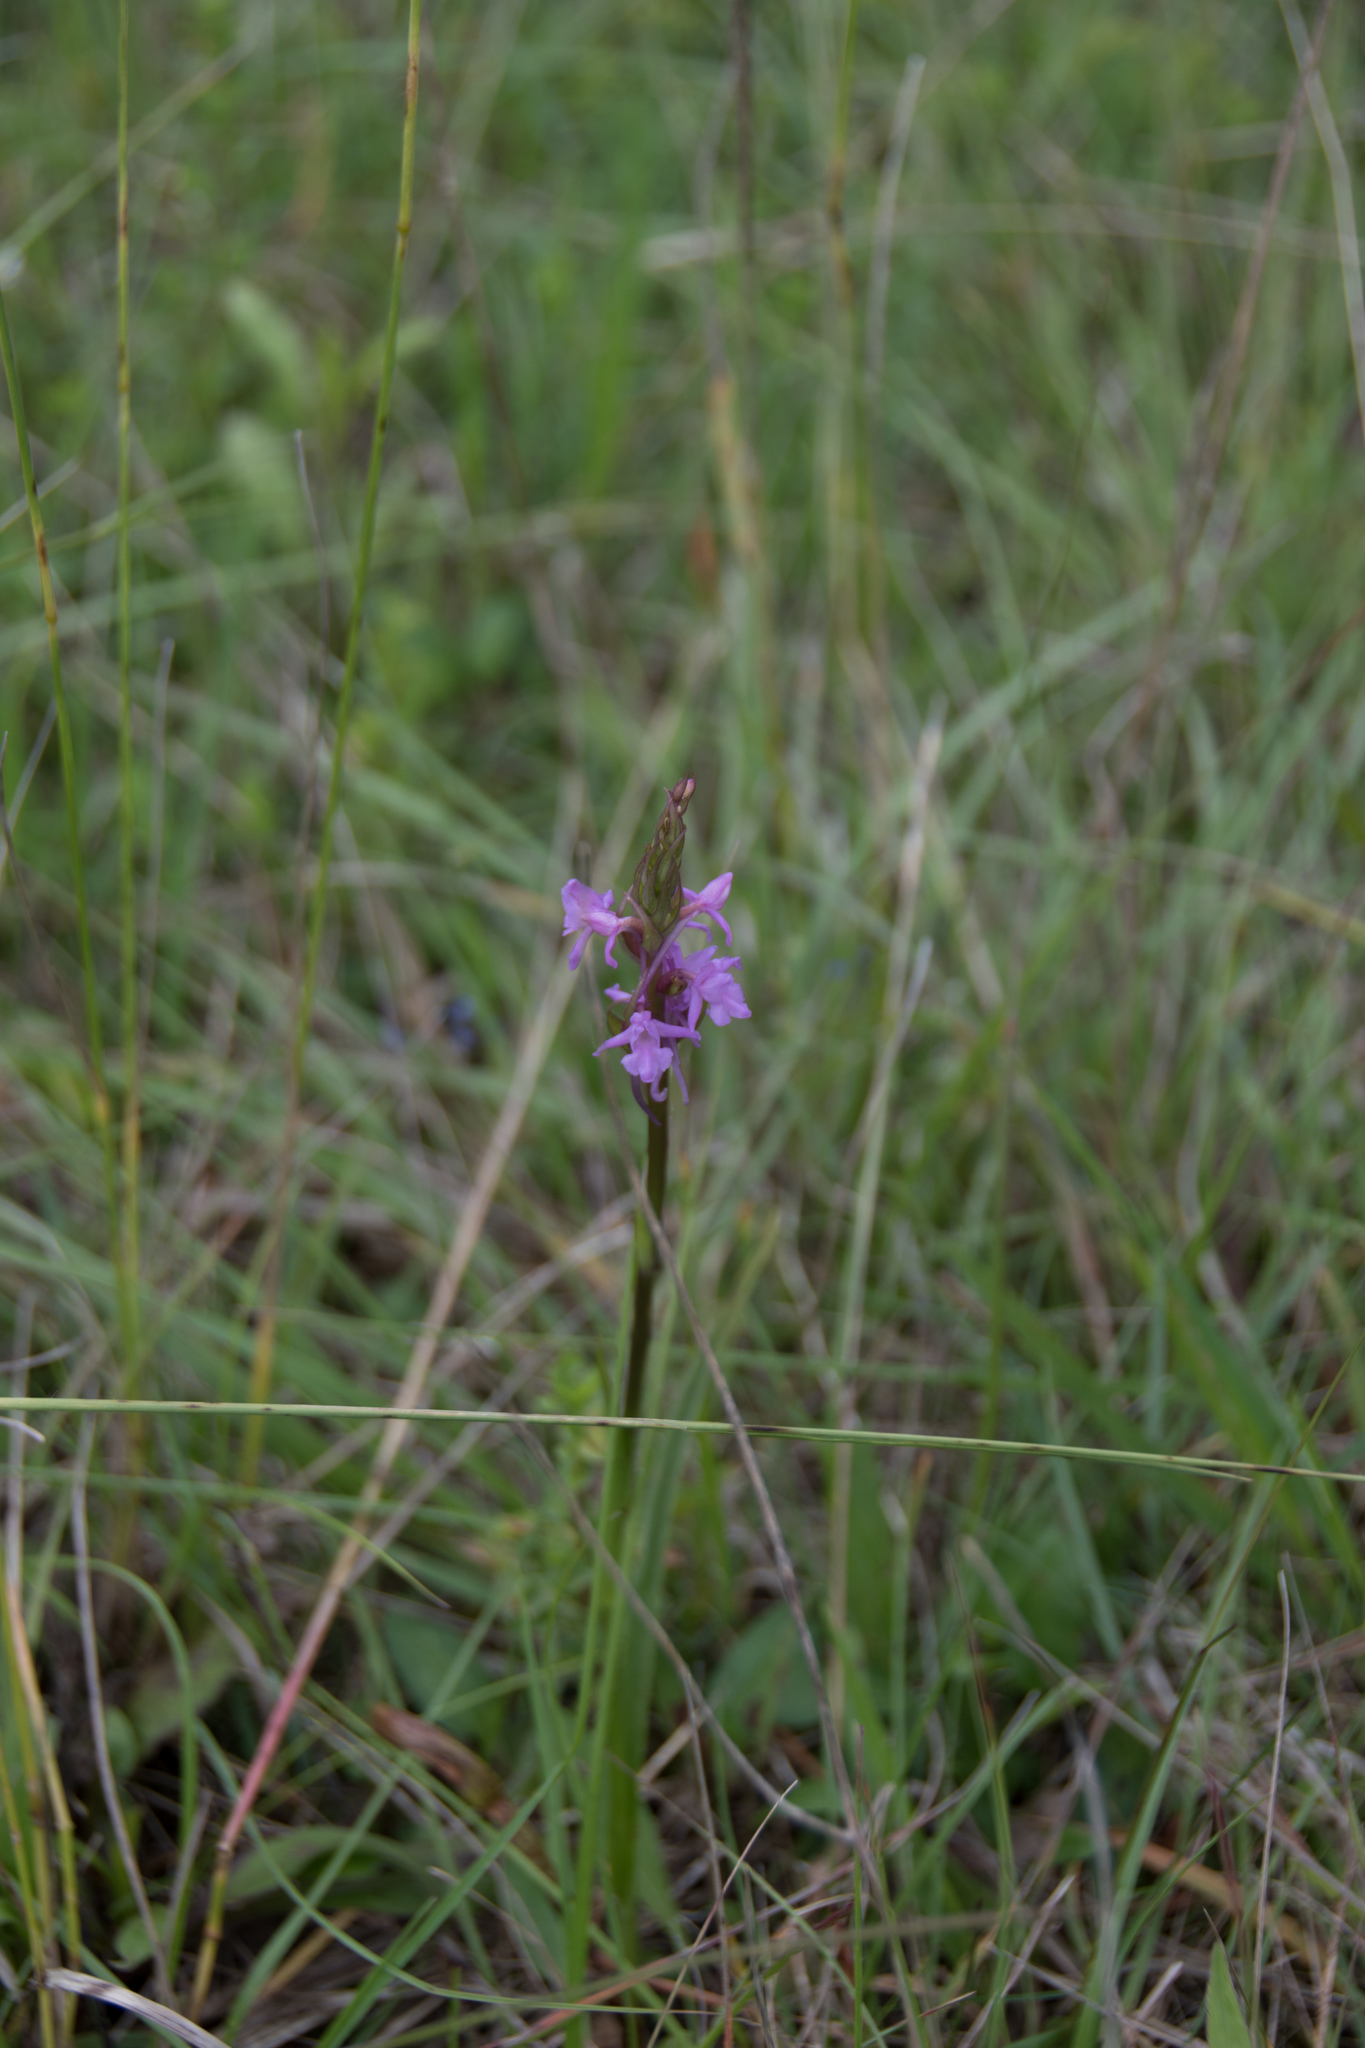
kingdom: Plantae
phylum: Tracheophyta
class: Liliopsida
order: Asparagales
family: Orchidaceae
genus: Gymnadenia
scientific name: Gymnadenia conopsea
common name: Fragrant orchid
